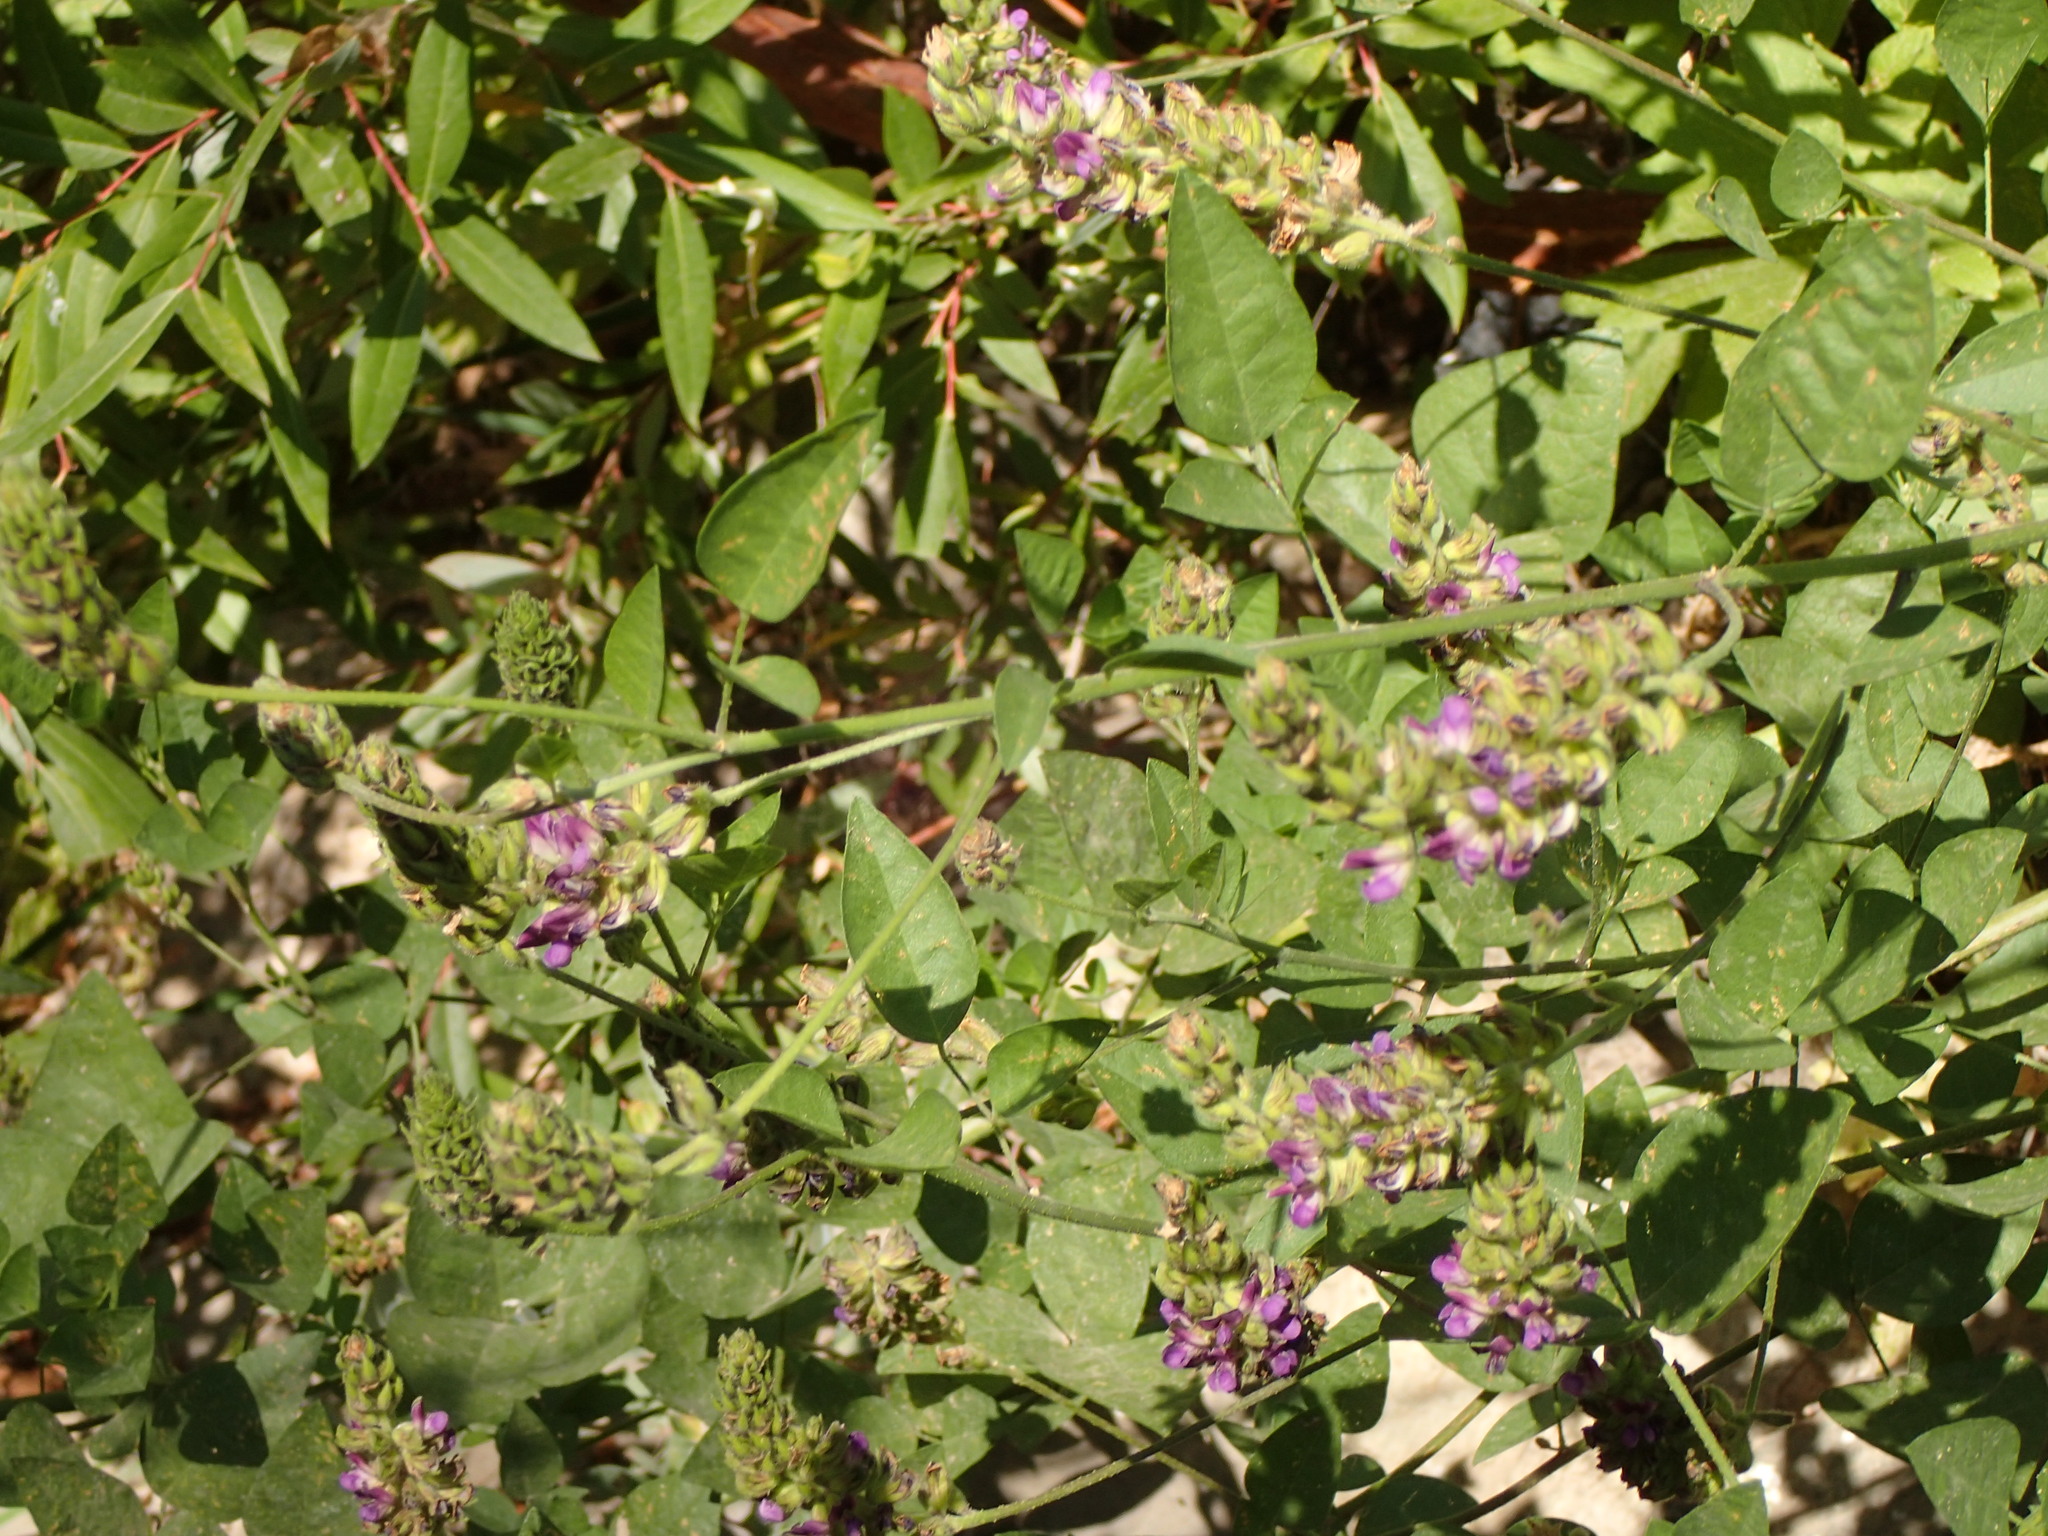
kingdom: Plantae
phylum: Tracheophyta
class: Magnoliopsida
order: Fabales
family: Fabaceae
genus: Hoita
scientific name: Hoita macrostachya
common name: Leatherroot
